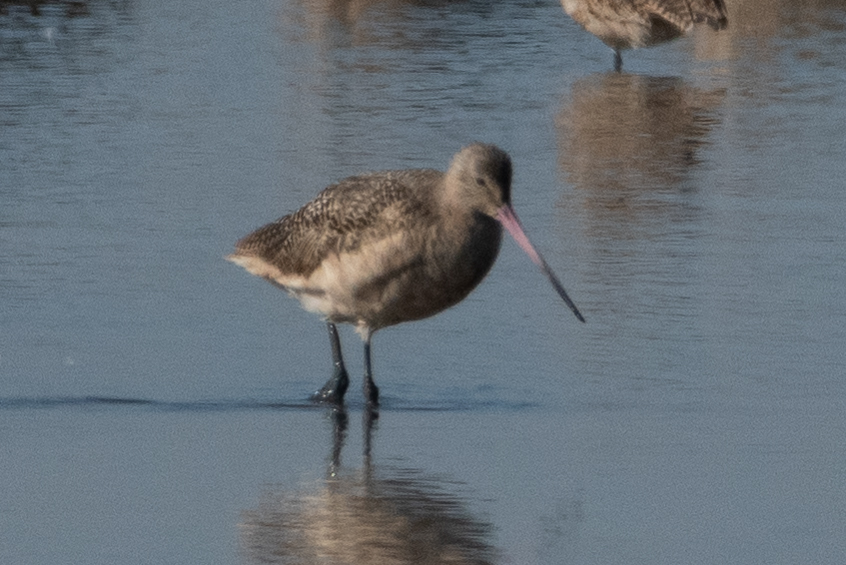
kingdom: Animalia
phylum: Chordata
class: Aves
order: Charadriiformes
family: Scolopacidae
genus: Limosa
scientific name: Limosa fedoa
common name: Marbled godwit
